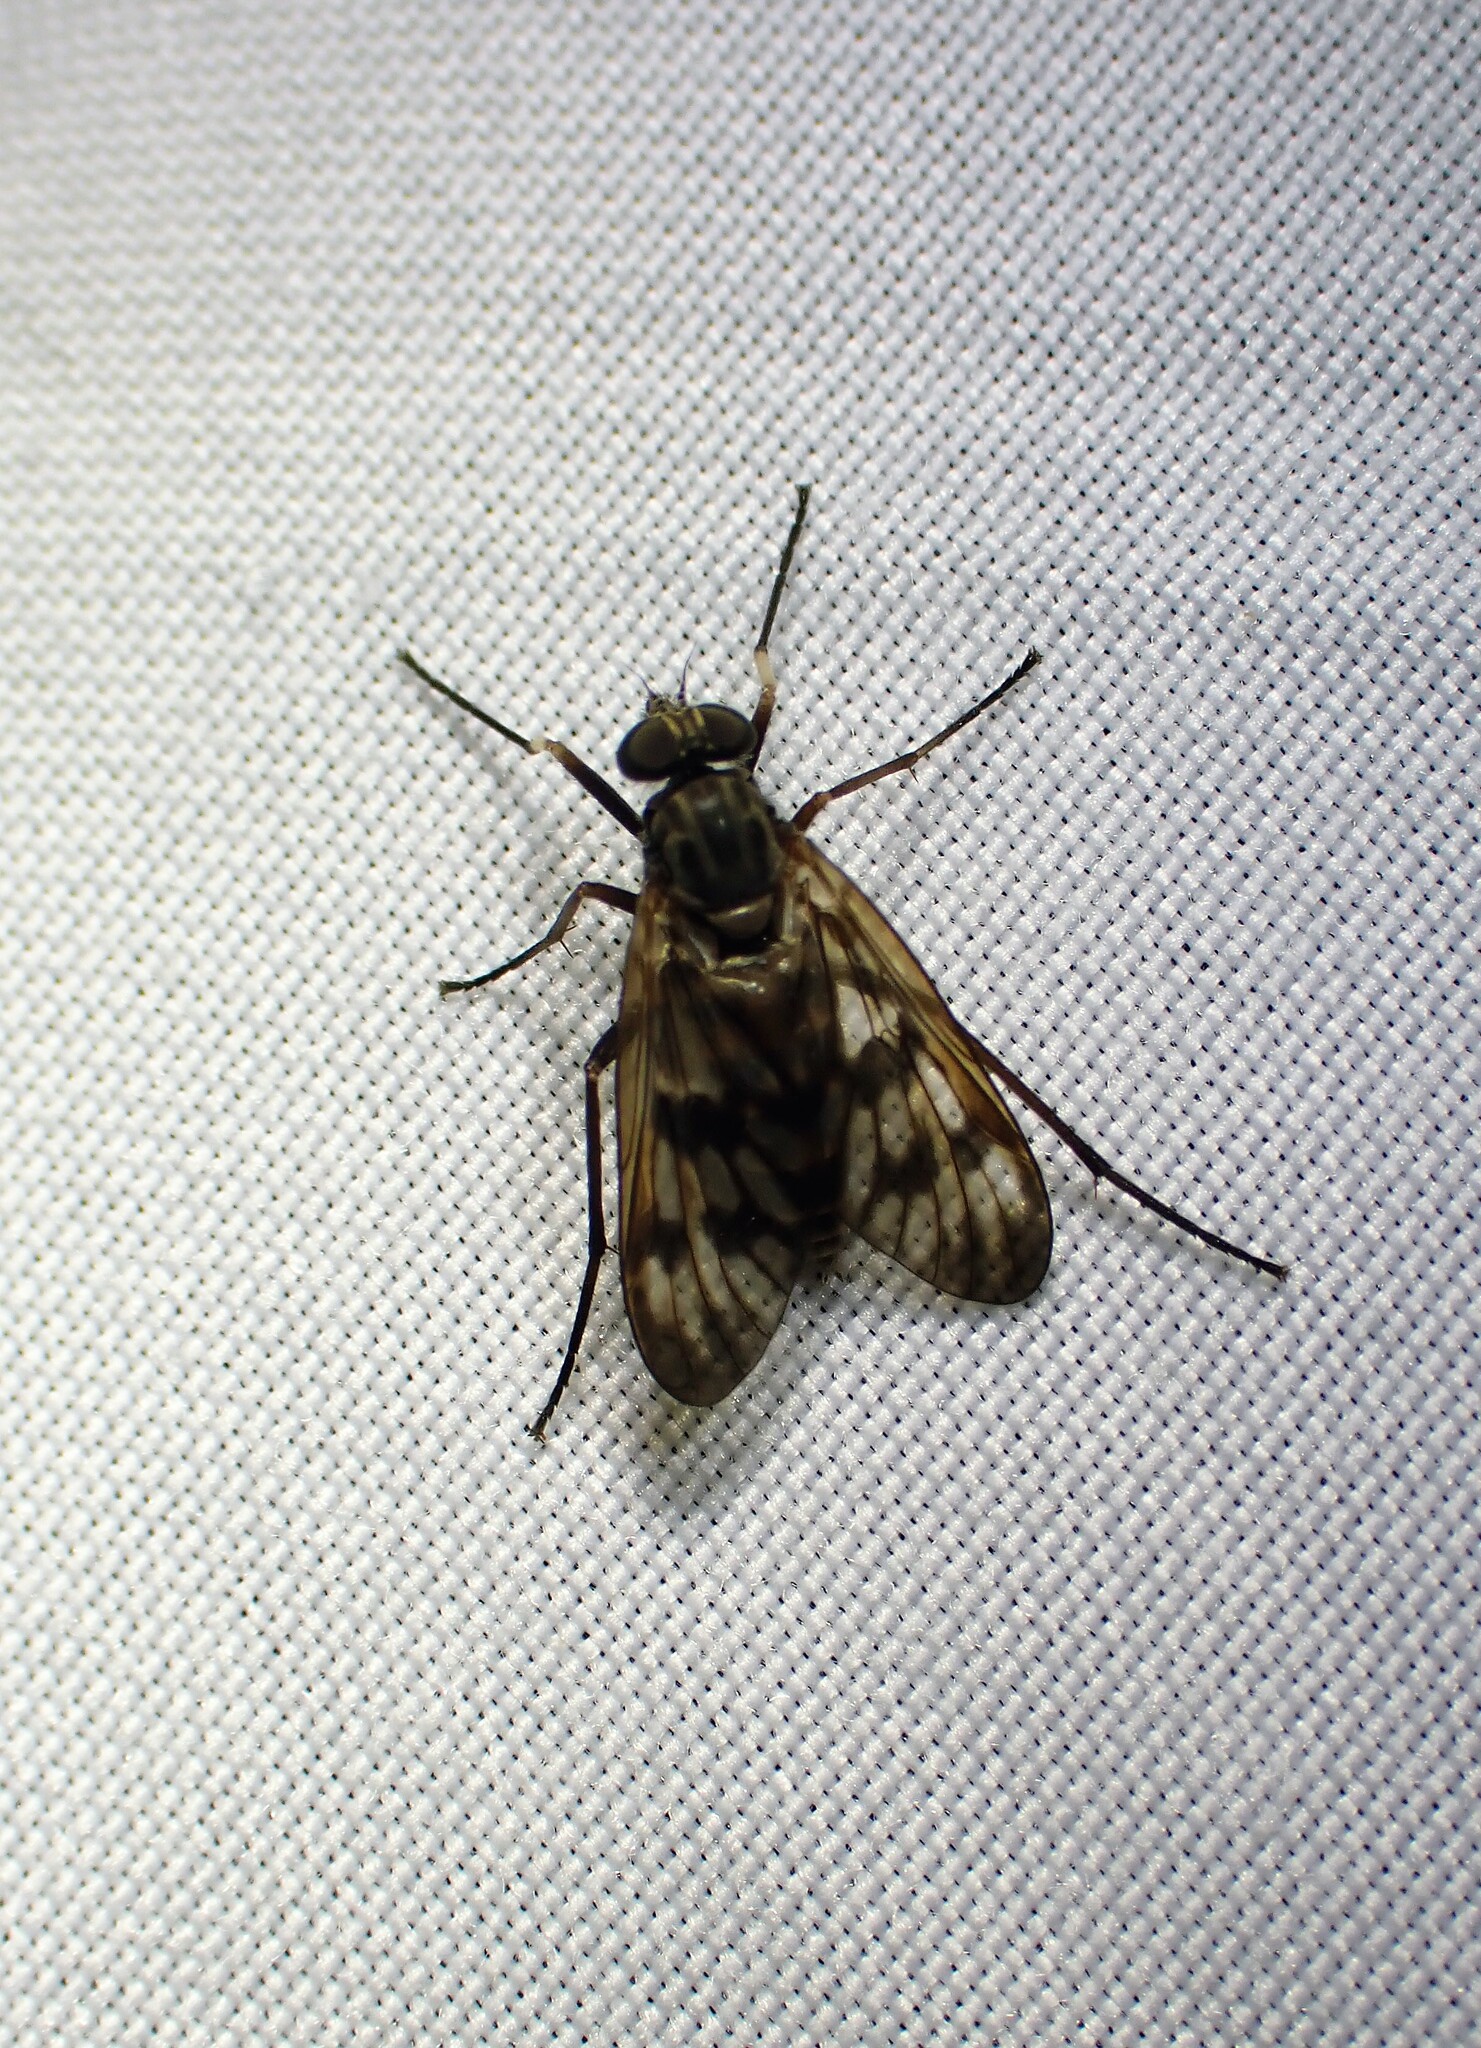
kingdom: Animalia
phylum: Arthropoda
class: Insecta
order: Diptera
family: Rhagionidae
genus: Rhagio
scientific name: Rhagio mystaceus
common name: Common snipe fly
